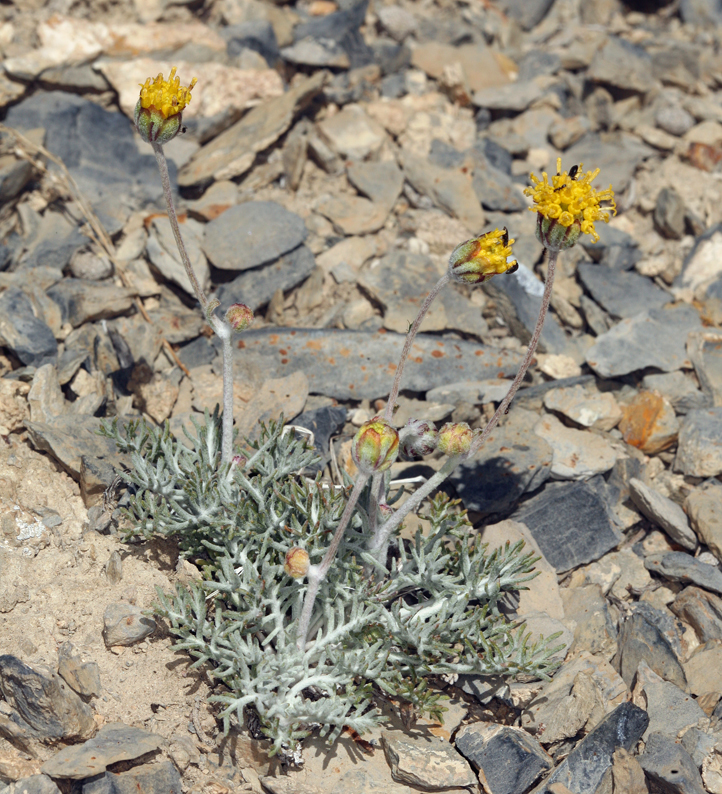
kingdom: Plantae
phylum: Tracheophyta
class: Magnoliopsida
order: Asterales
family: Asteraceae
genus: Hymenopappus
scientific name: Hymenopappus filifolius
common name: Columbia cutleaf
